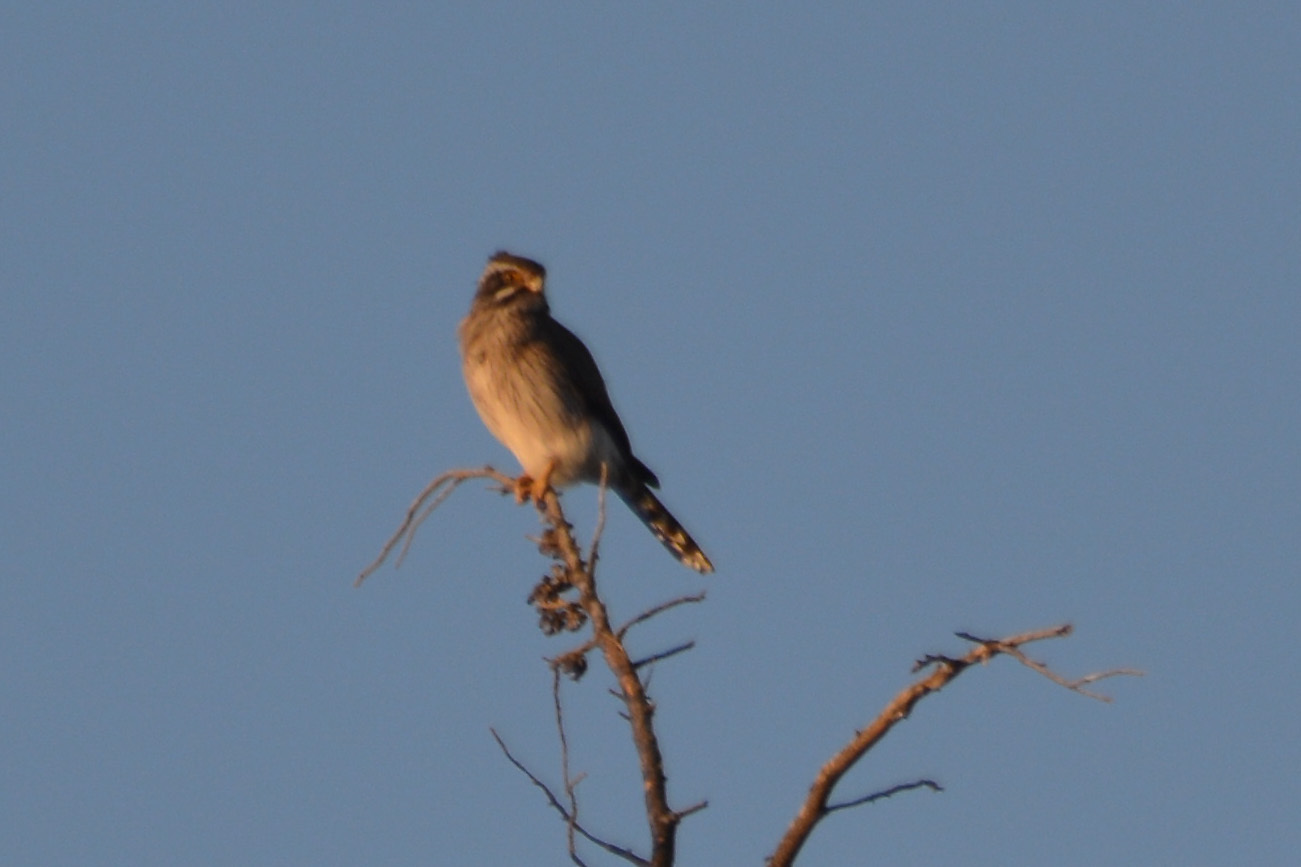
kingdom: Animalia
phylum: Chordata
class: Aves
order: Falconiformes
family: Falconidae
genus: Spiziapteryx
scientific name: Spiziapteryx circumcincta
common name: Spot-winged falconet
